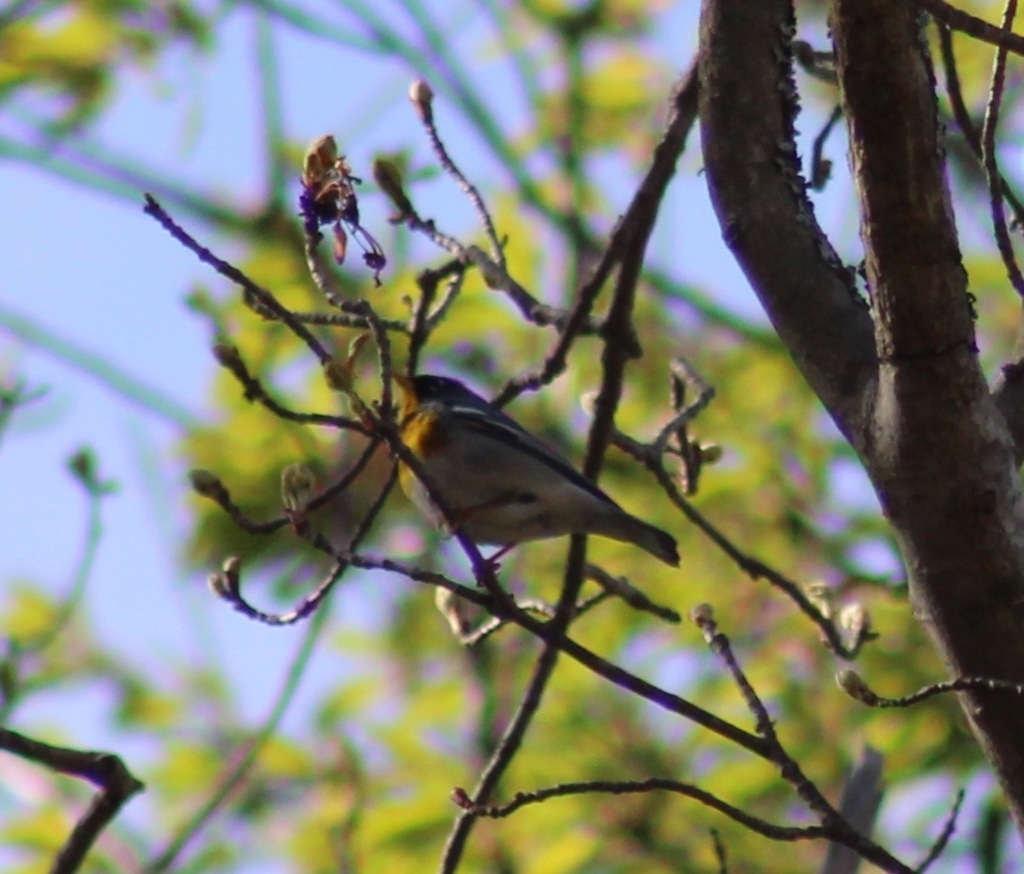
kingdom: Animalia
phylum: Chordata
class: Aves
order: Passeriformes
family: Parulidae
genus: Setophaga
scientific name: Setophaga americana
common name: Northern parula
